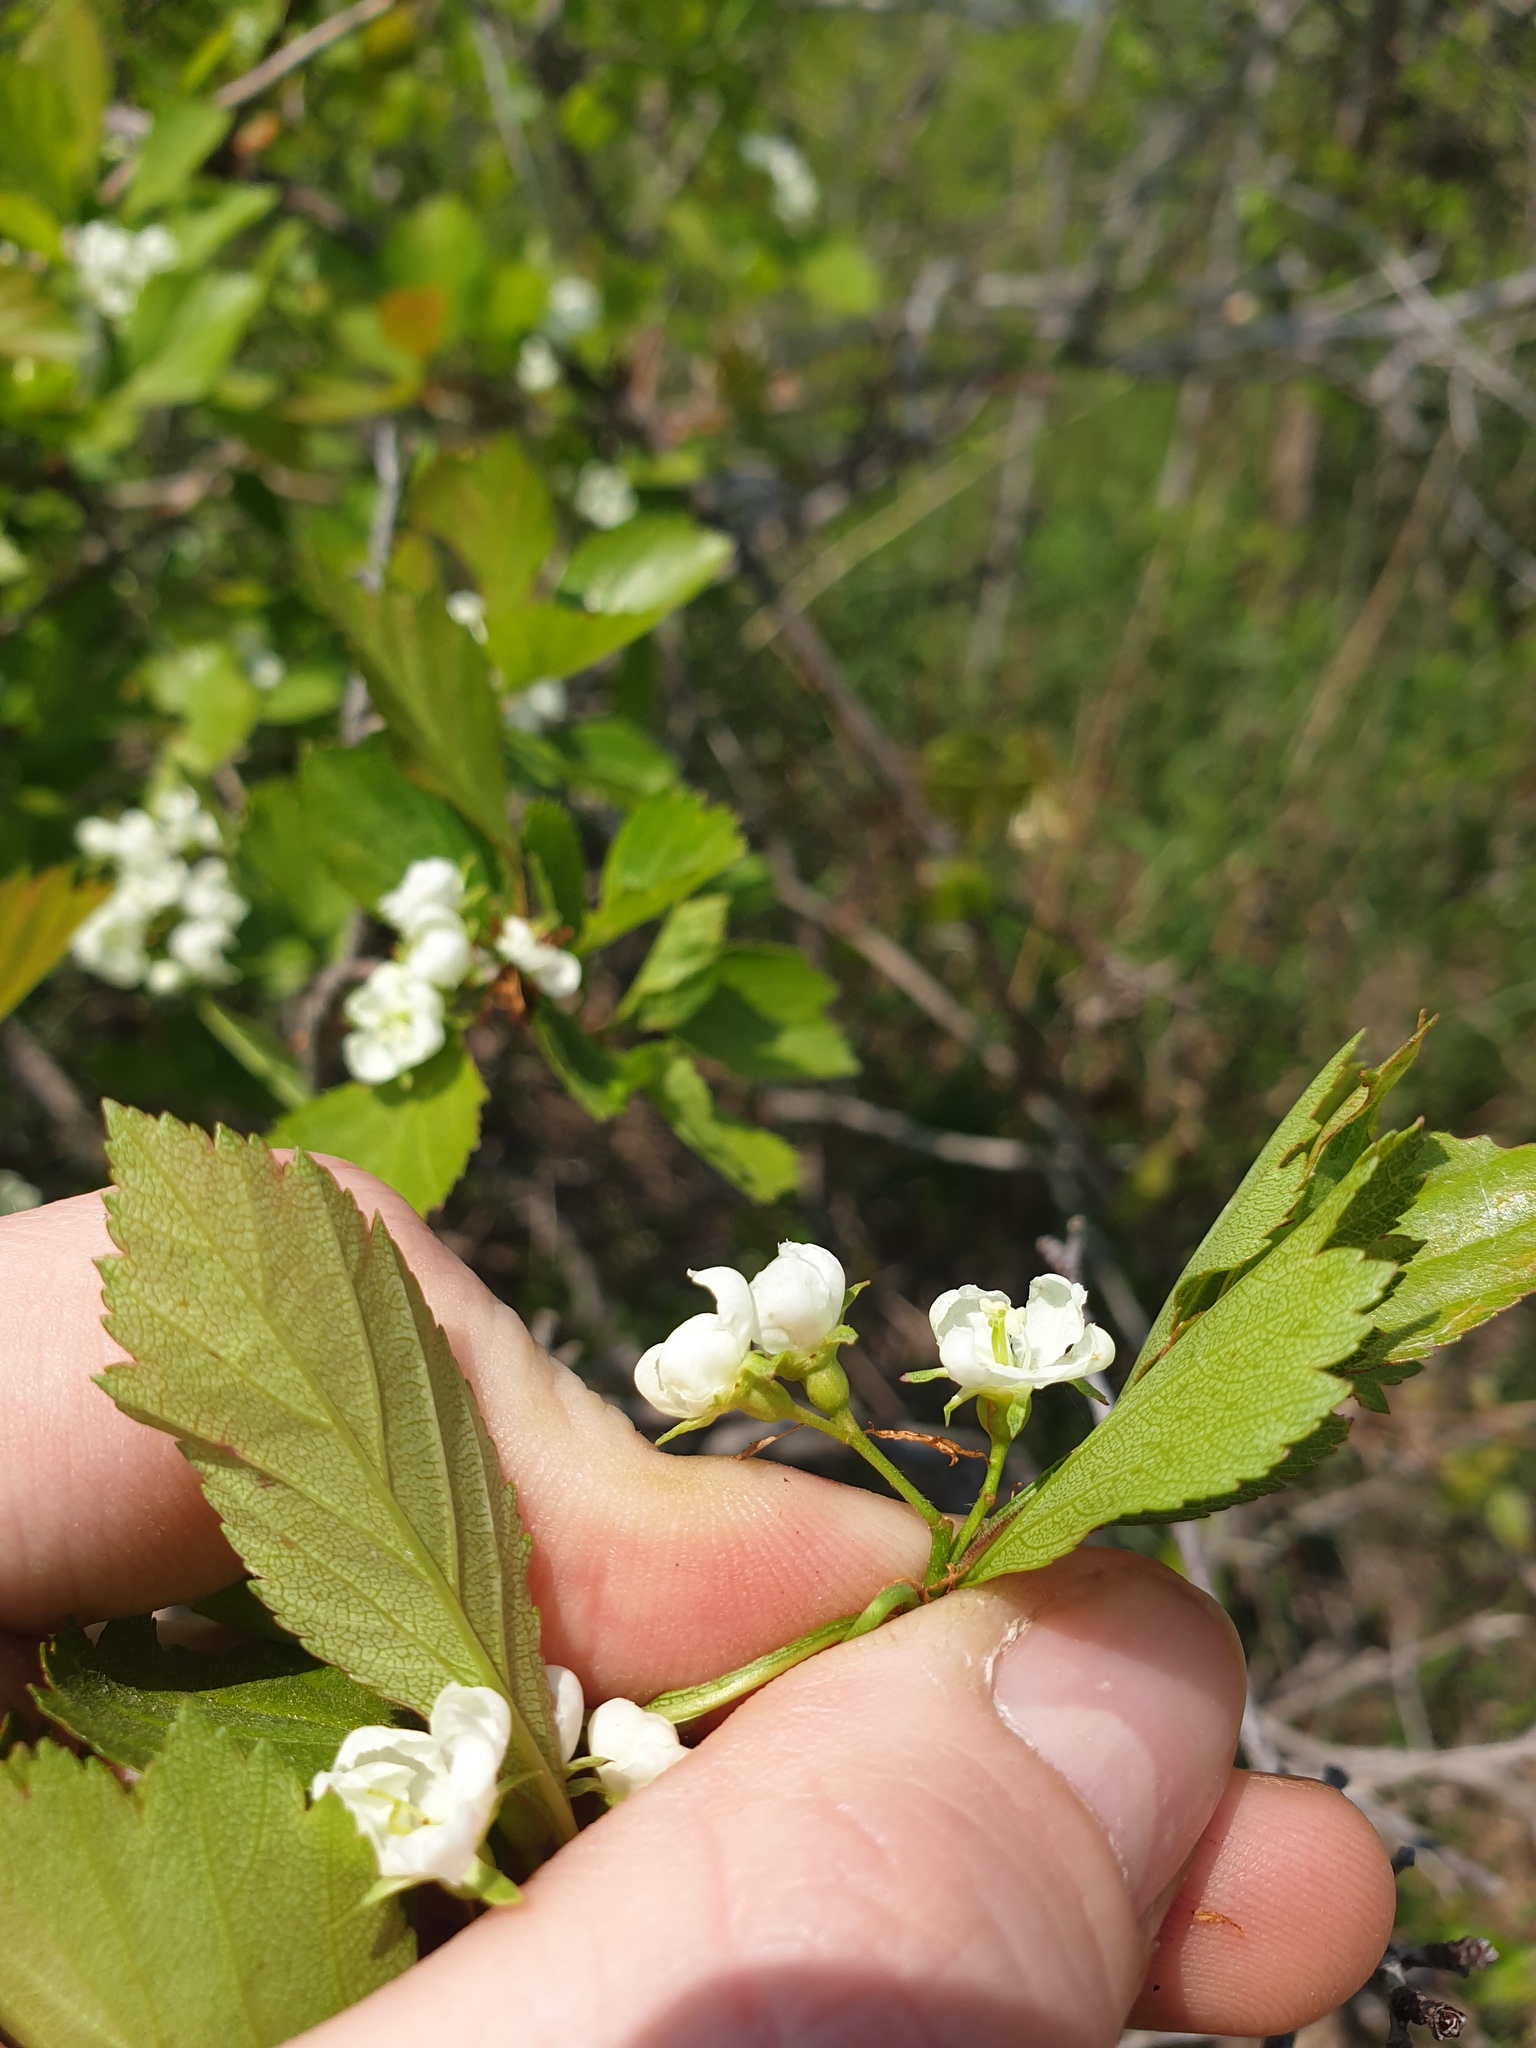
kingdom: Plantae
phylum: Tracheophyta
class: Magnoliopsida
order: Rosales
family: Rosaceae
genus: Crataegus
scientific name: Crataegus dodgei
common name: Dodge's hawthorn
